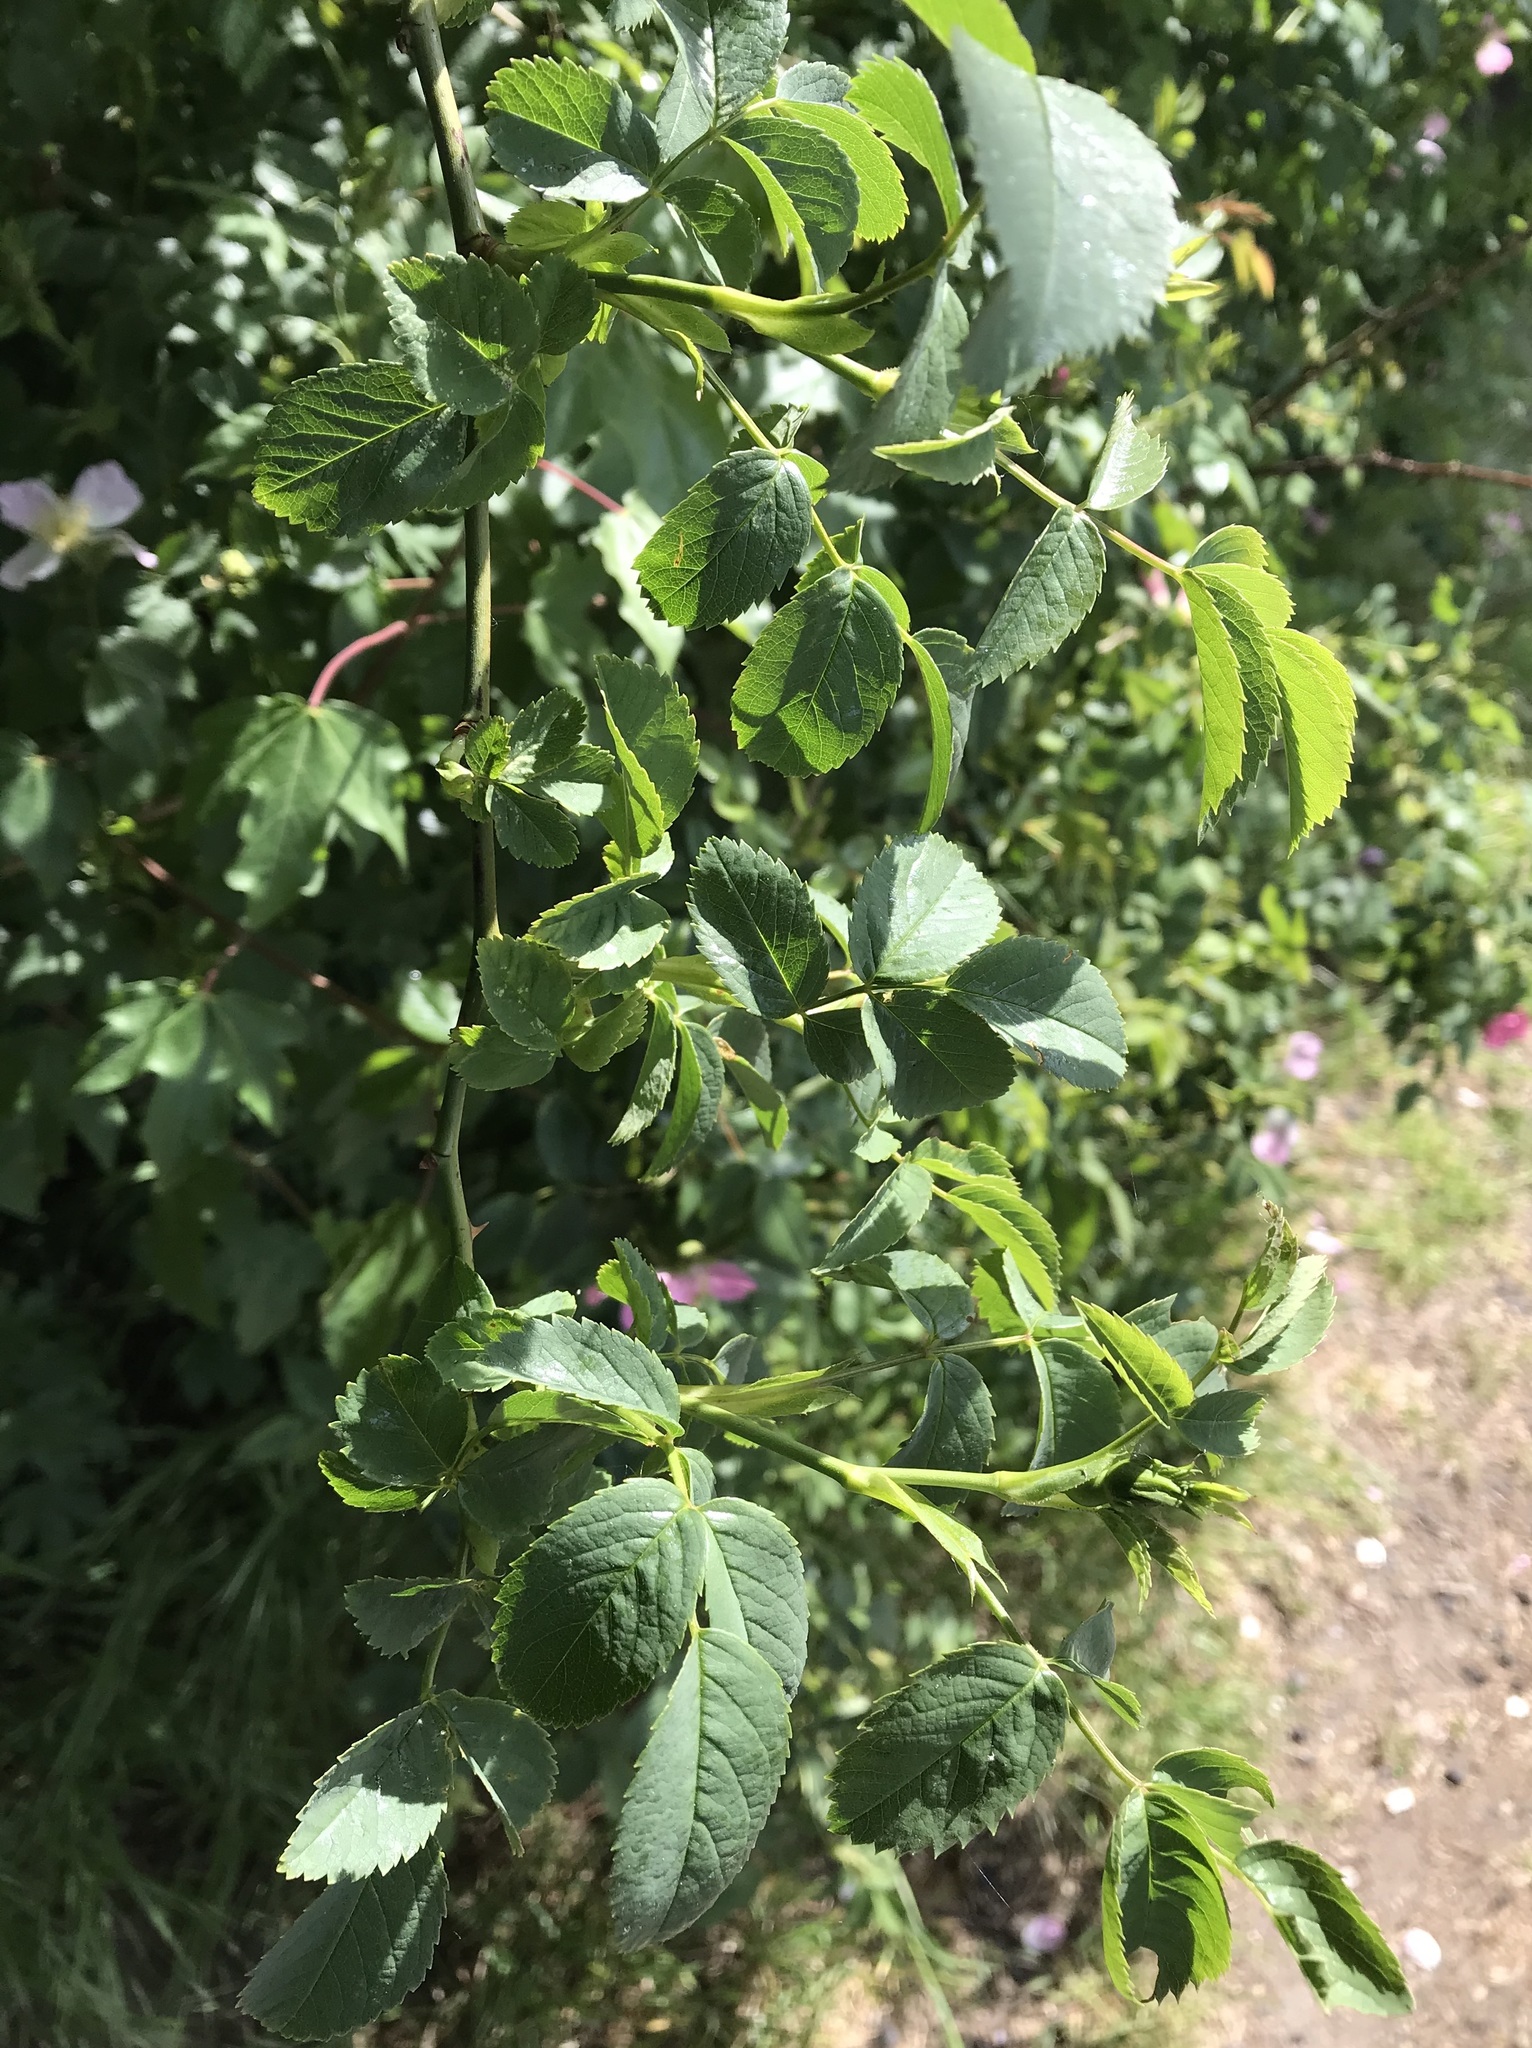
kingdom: Plantae
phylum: Tracheophyta
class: Magnoliopsida
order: Rosales
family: Rosaceae
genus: Rosa
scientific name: Rosa canina
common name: Dog rose
